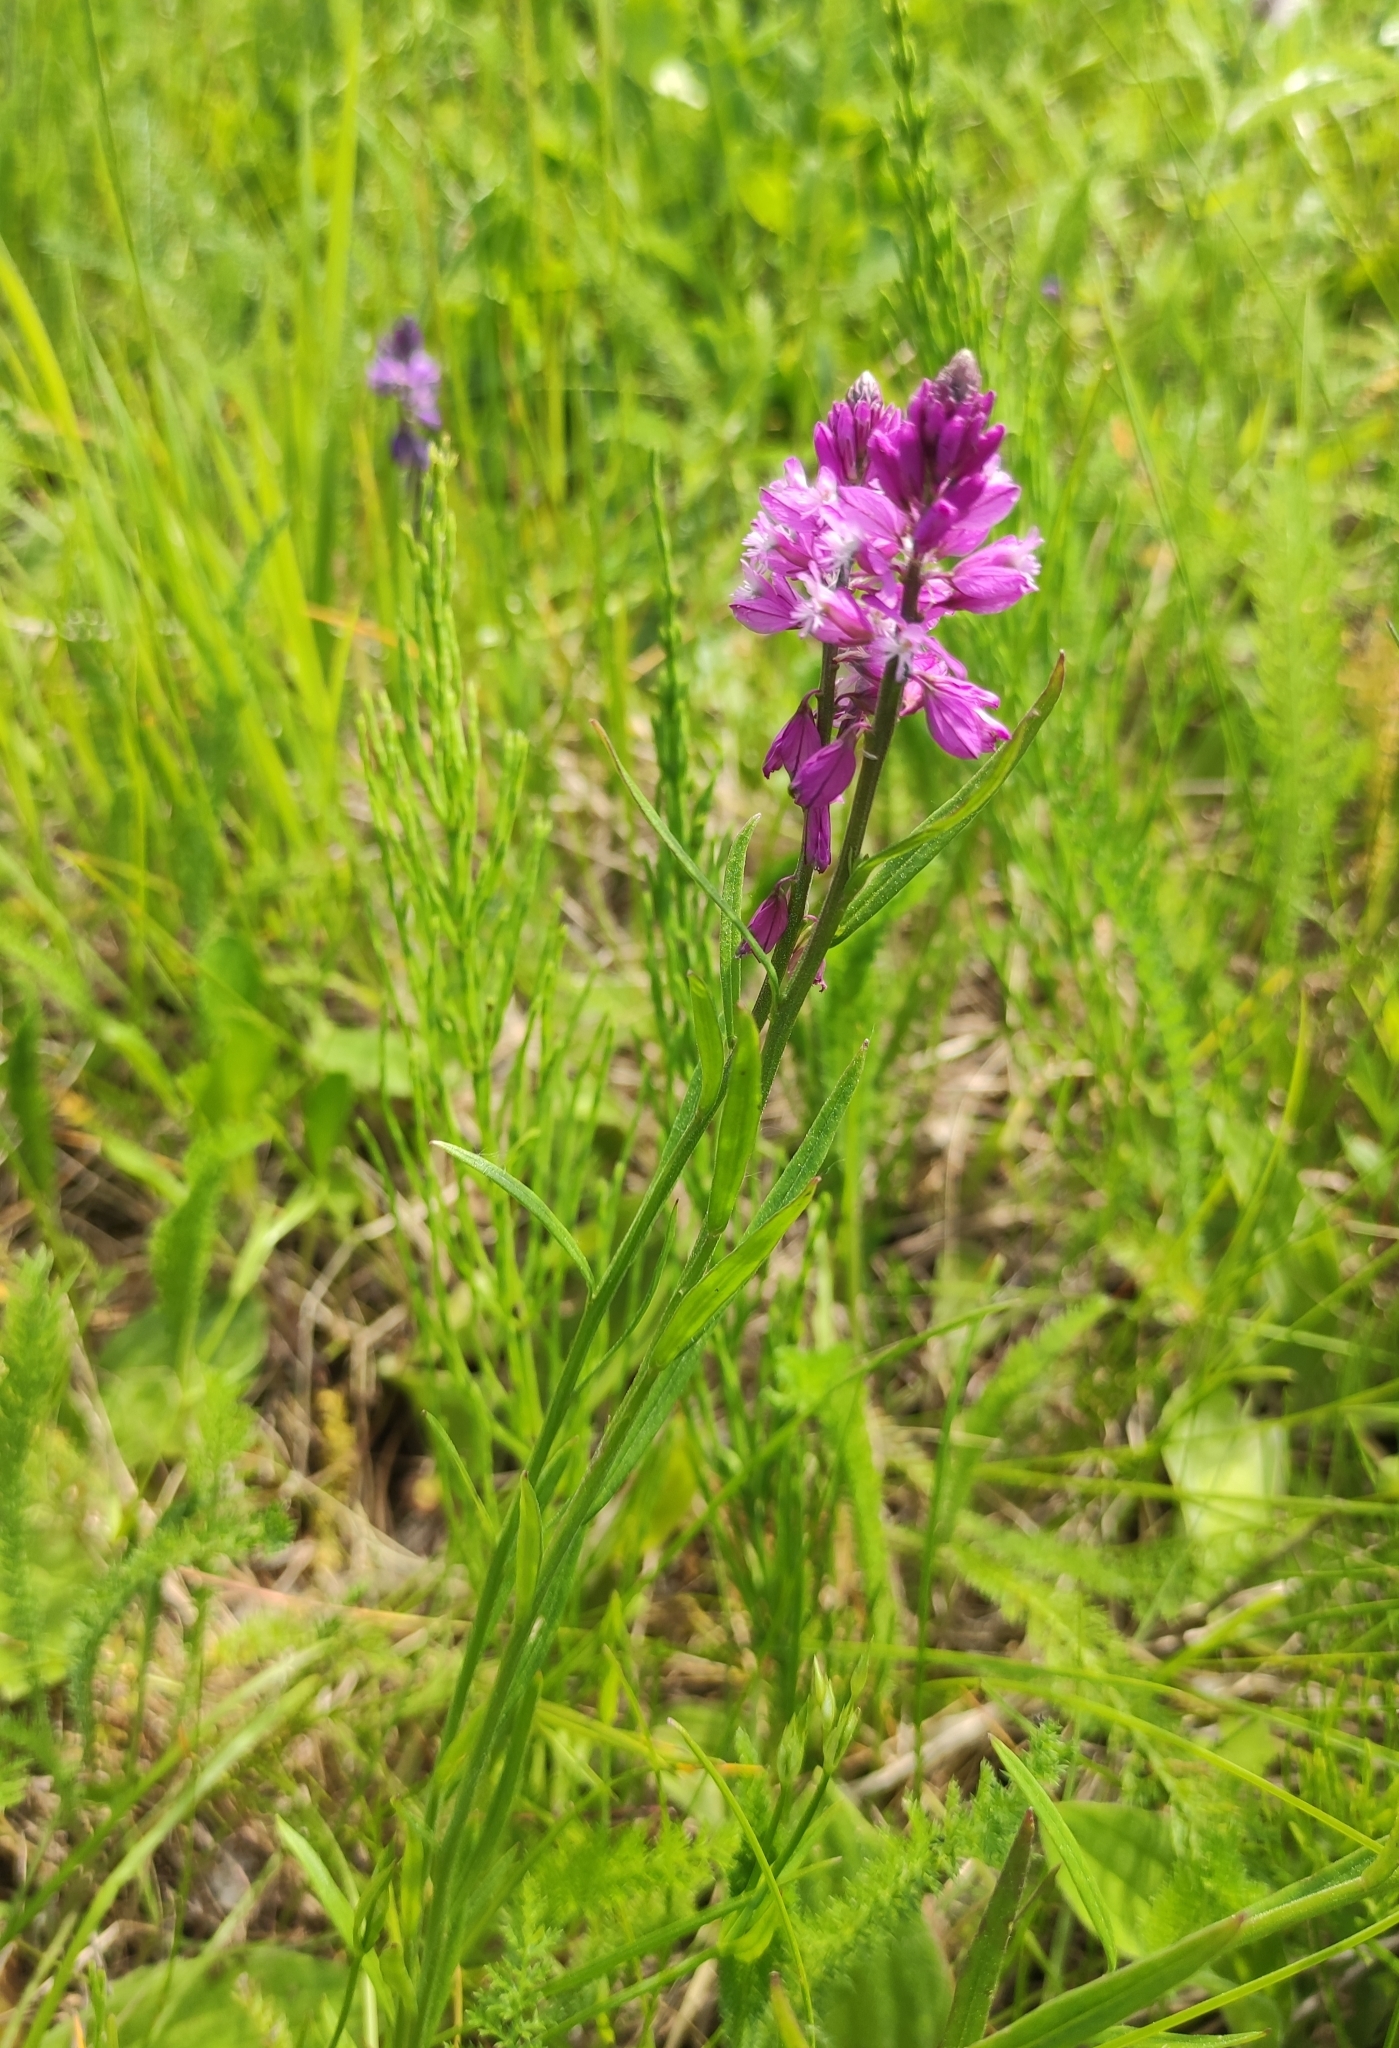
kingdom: Plantae
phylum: Tracheophyta
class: Magnoliopsida
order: Fabales
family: Polygalaceae
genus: Polygala
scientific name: Polygala comosa
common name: Tufted milkwort
